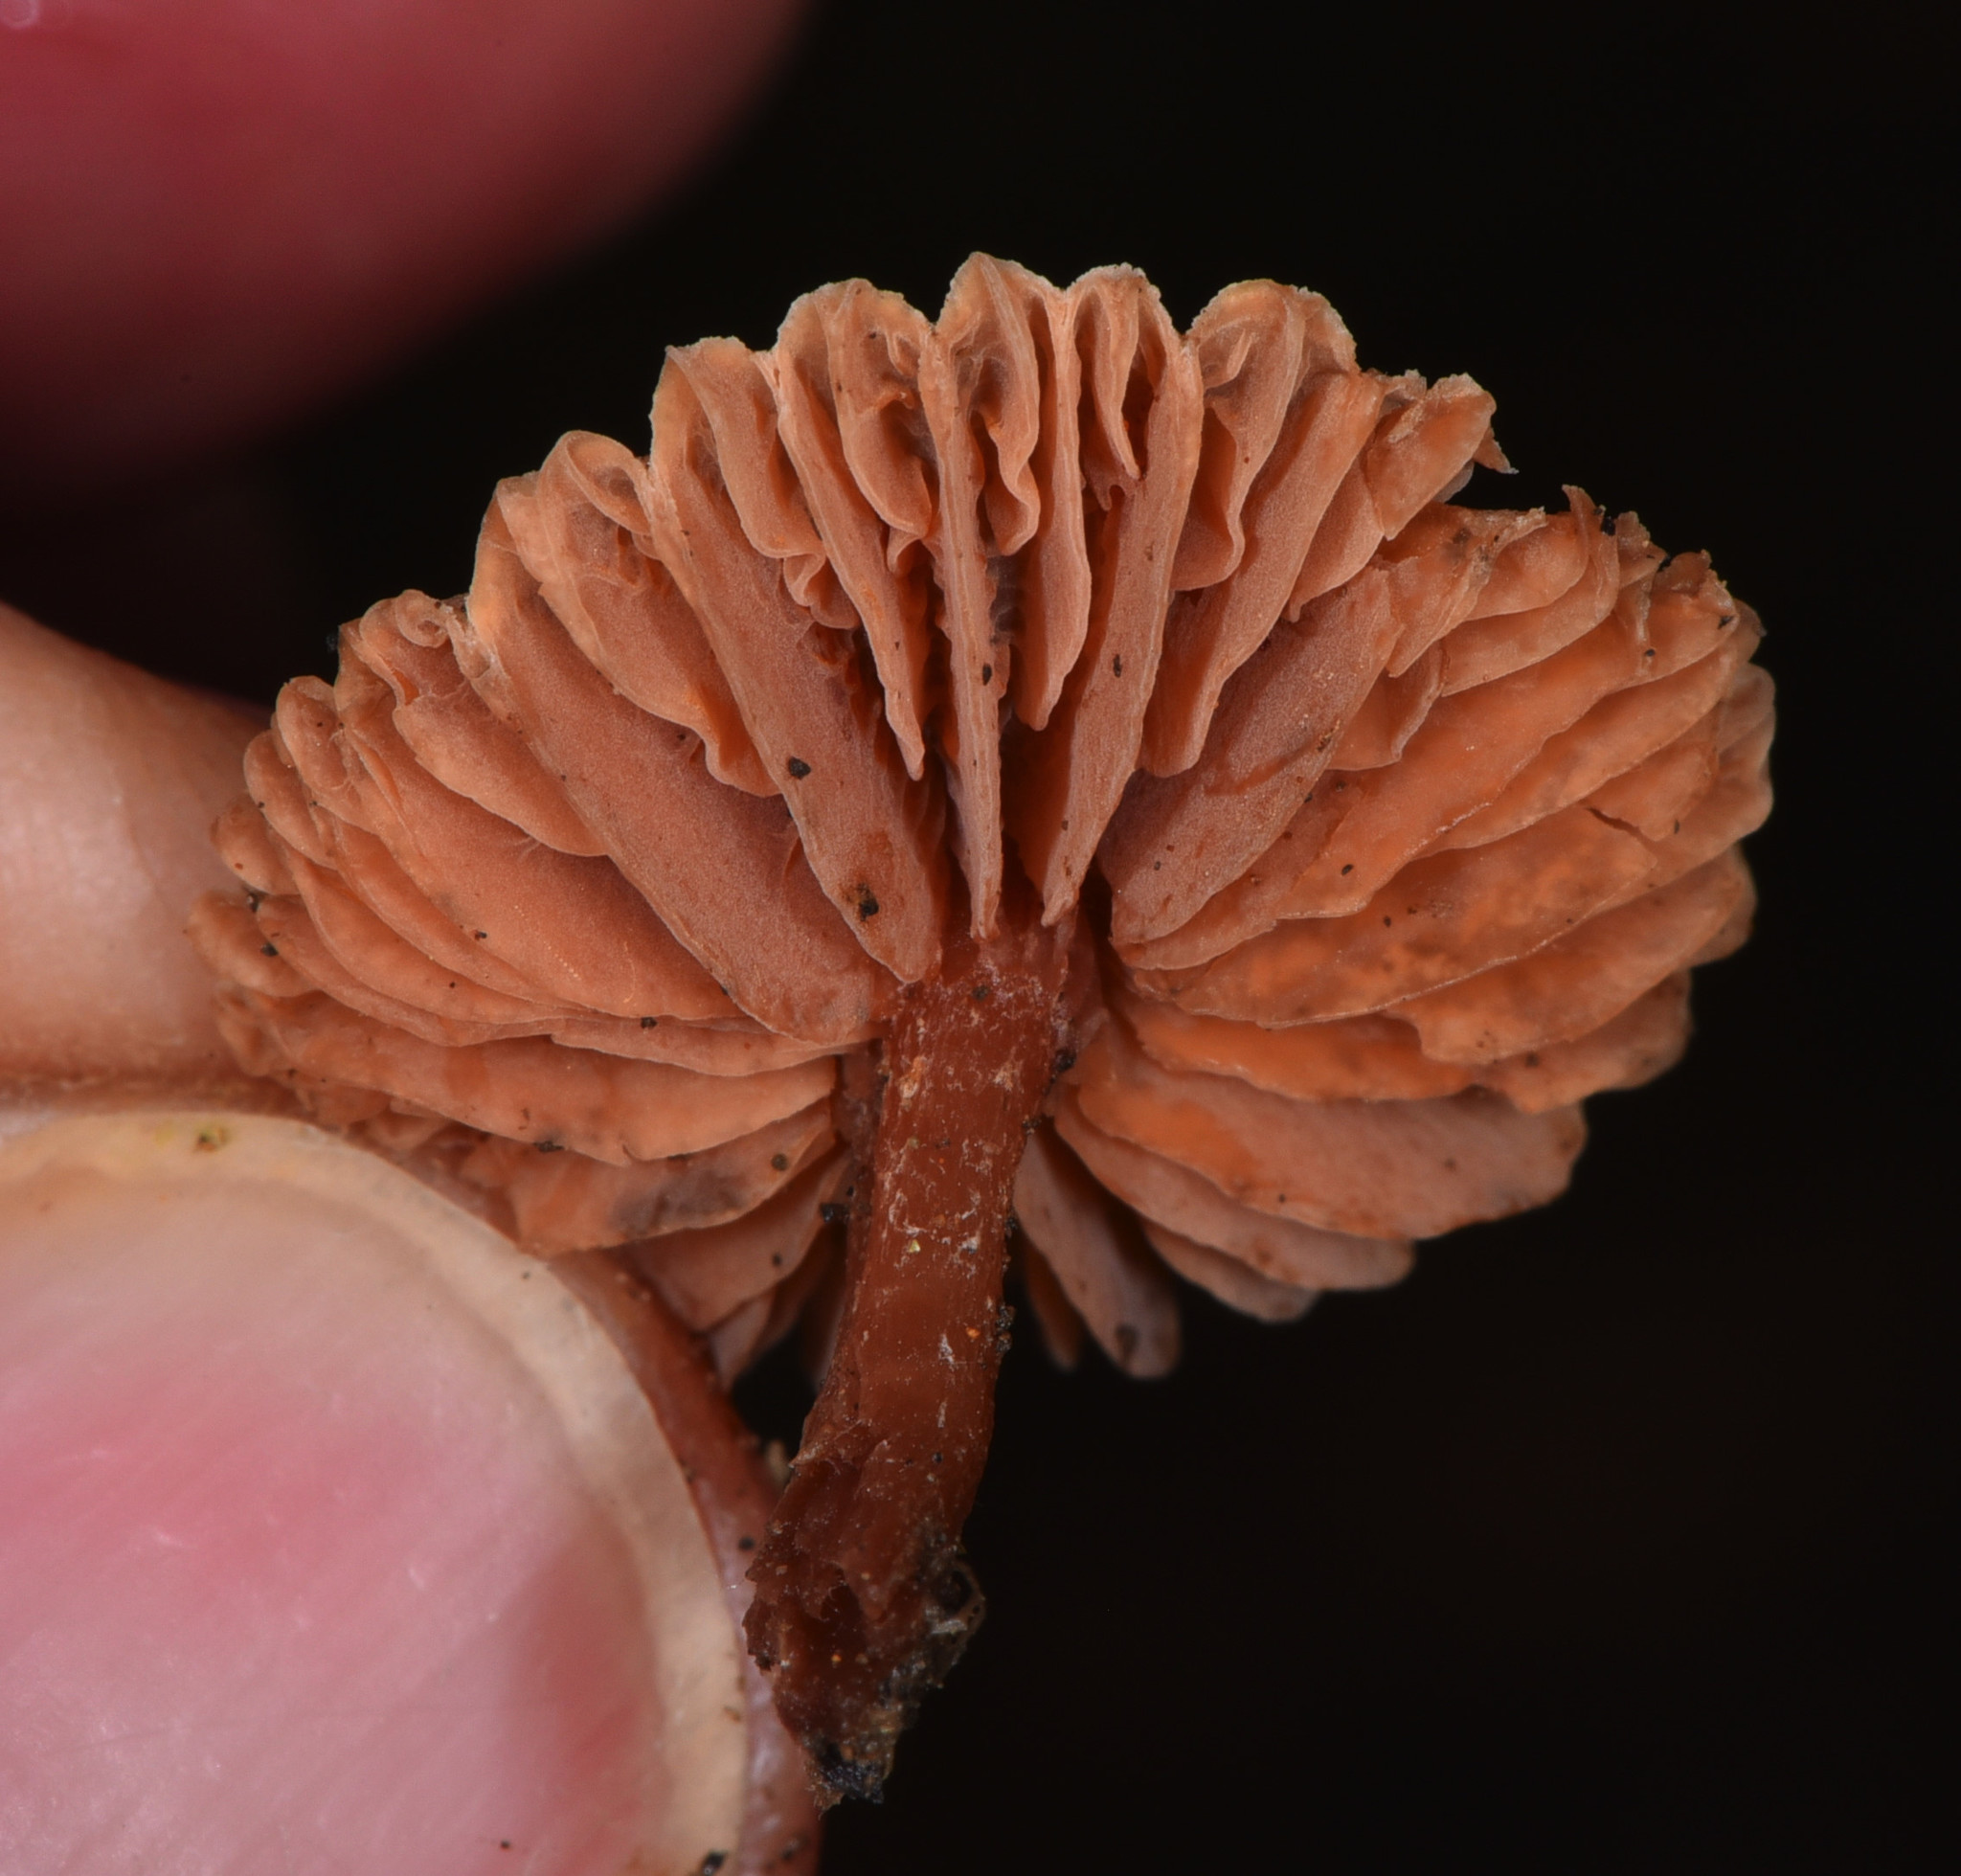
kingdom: Fungi
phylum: Basidiomycota
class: Agaricomycetes
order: Agaricales
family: Hydnangiaceae
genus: Laccaria
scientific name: Laccaria laccata
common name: Deceiver
